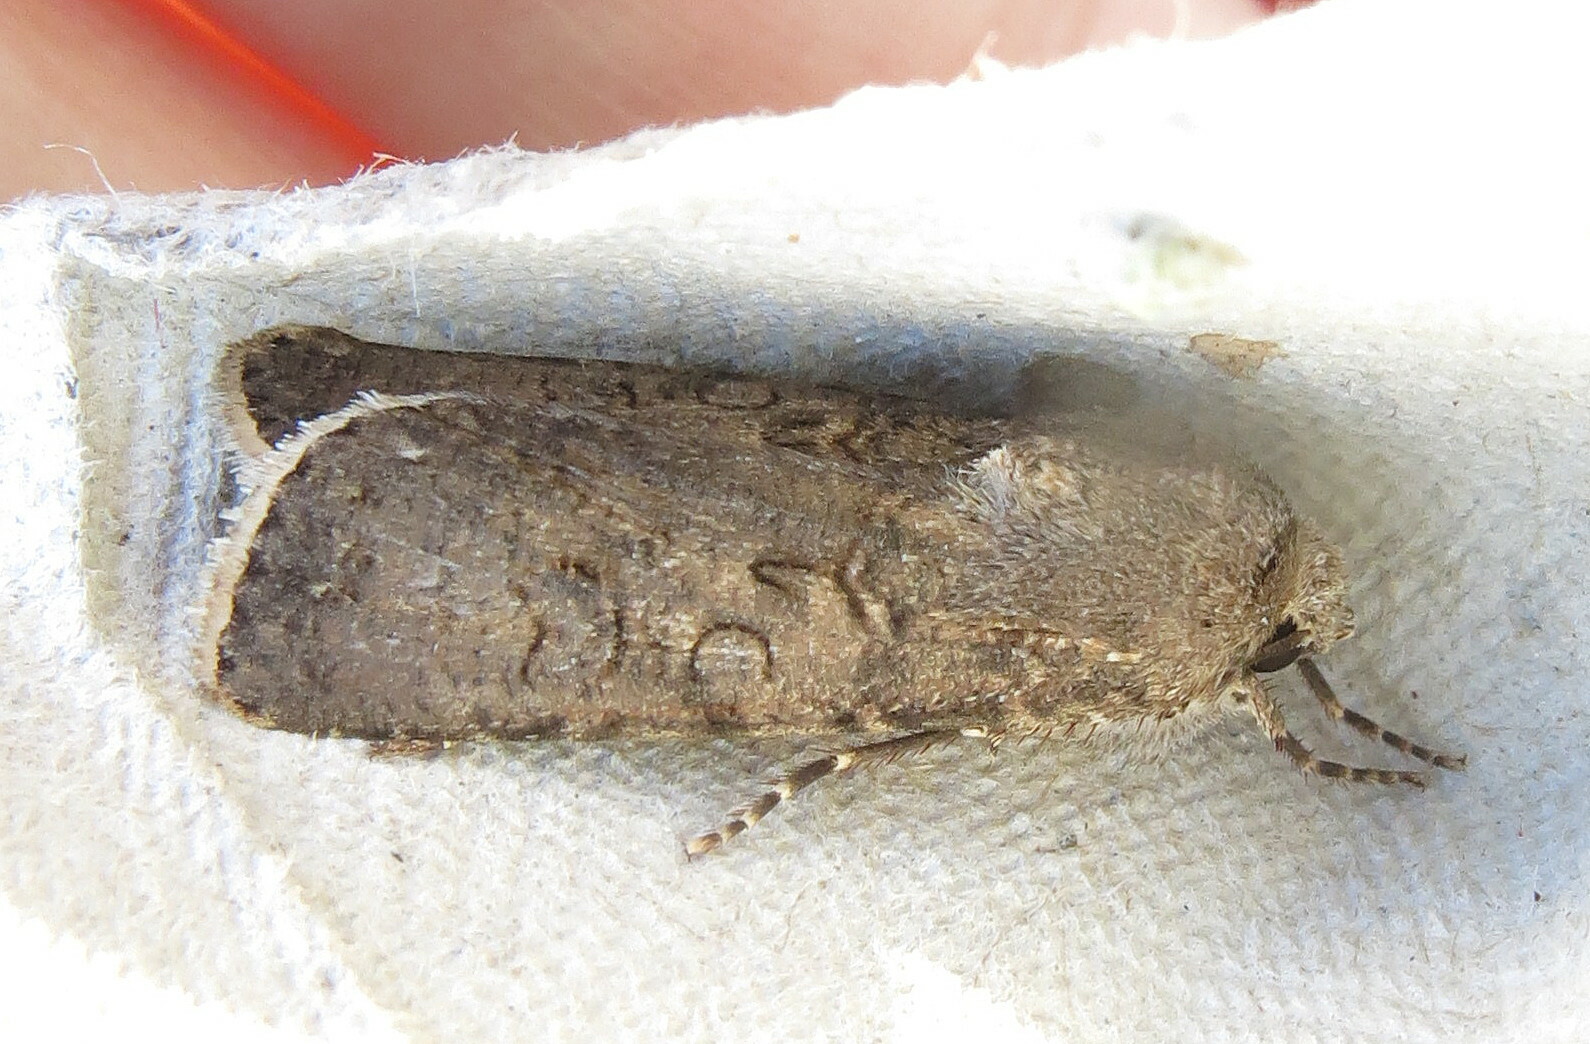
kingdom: Animalia
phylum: Arthropoda
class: Insecta
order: Lepidoptera
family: Noctuidae
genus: Agrotis
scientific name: Agrotis segetum
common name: Turnip moth
